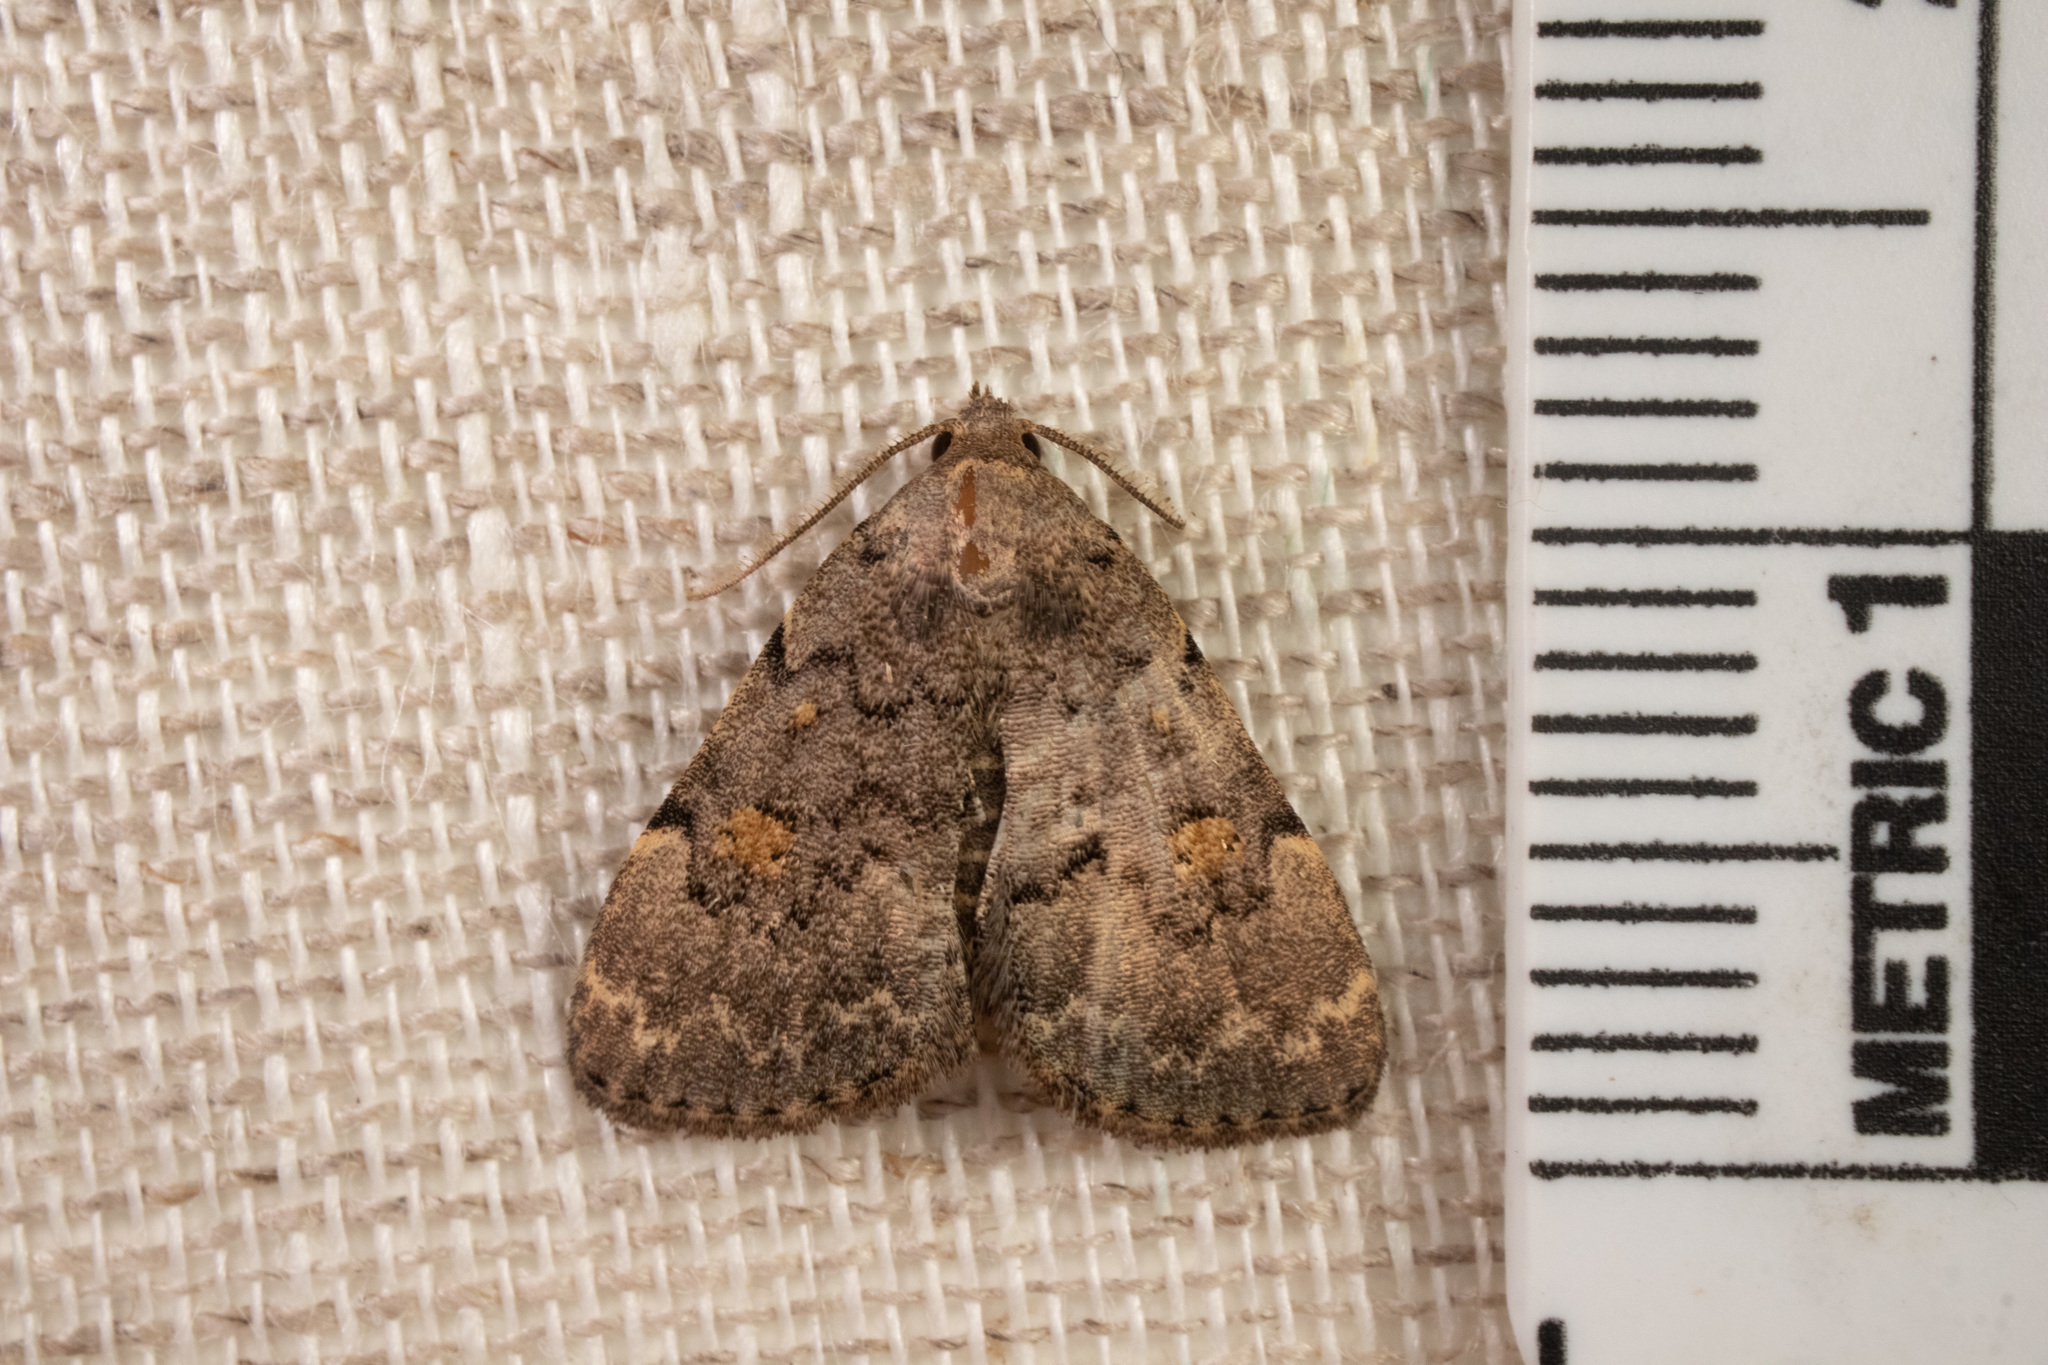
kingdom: Animalia
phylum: Arthropoda
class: Insecta
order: Lepidoptera
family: Erebidae
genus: Idia
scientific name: Idia aemula
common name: Common idia moth
